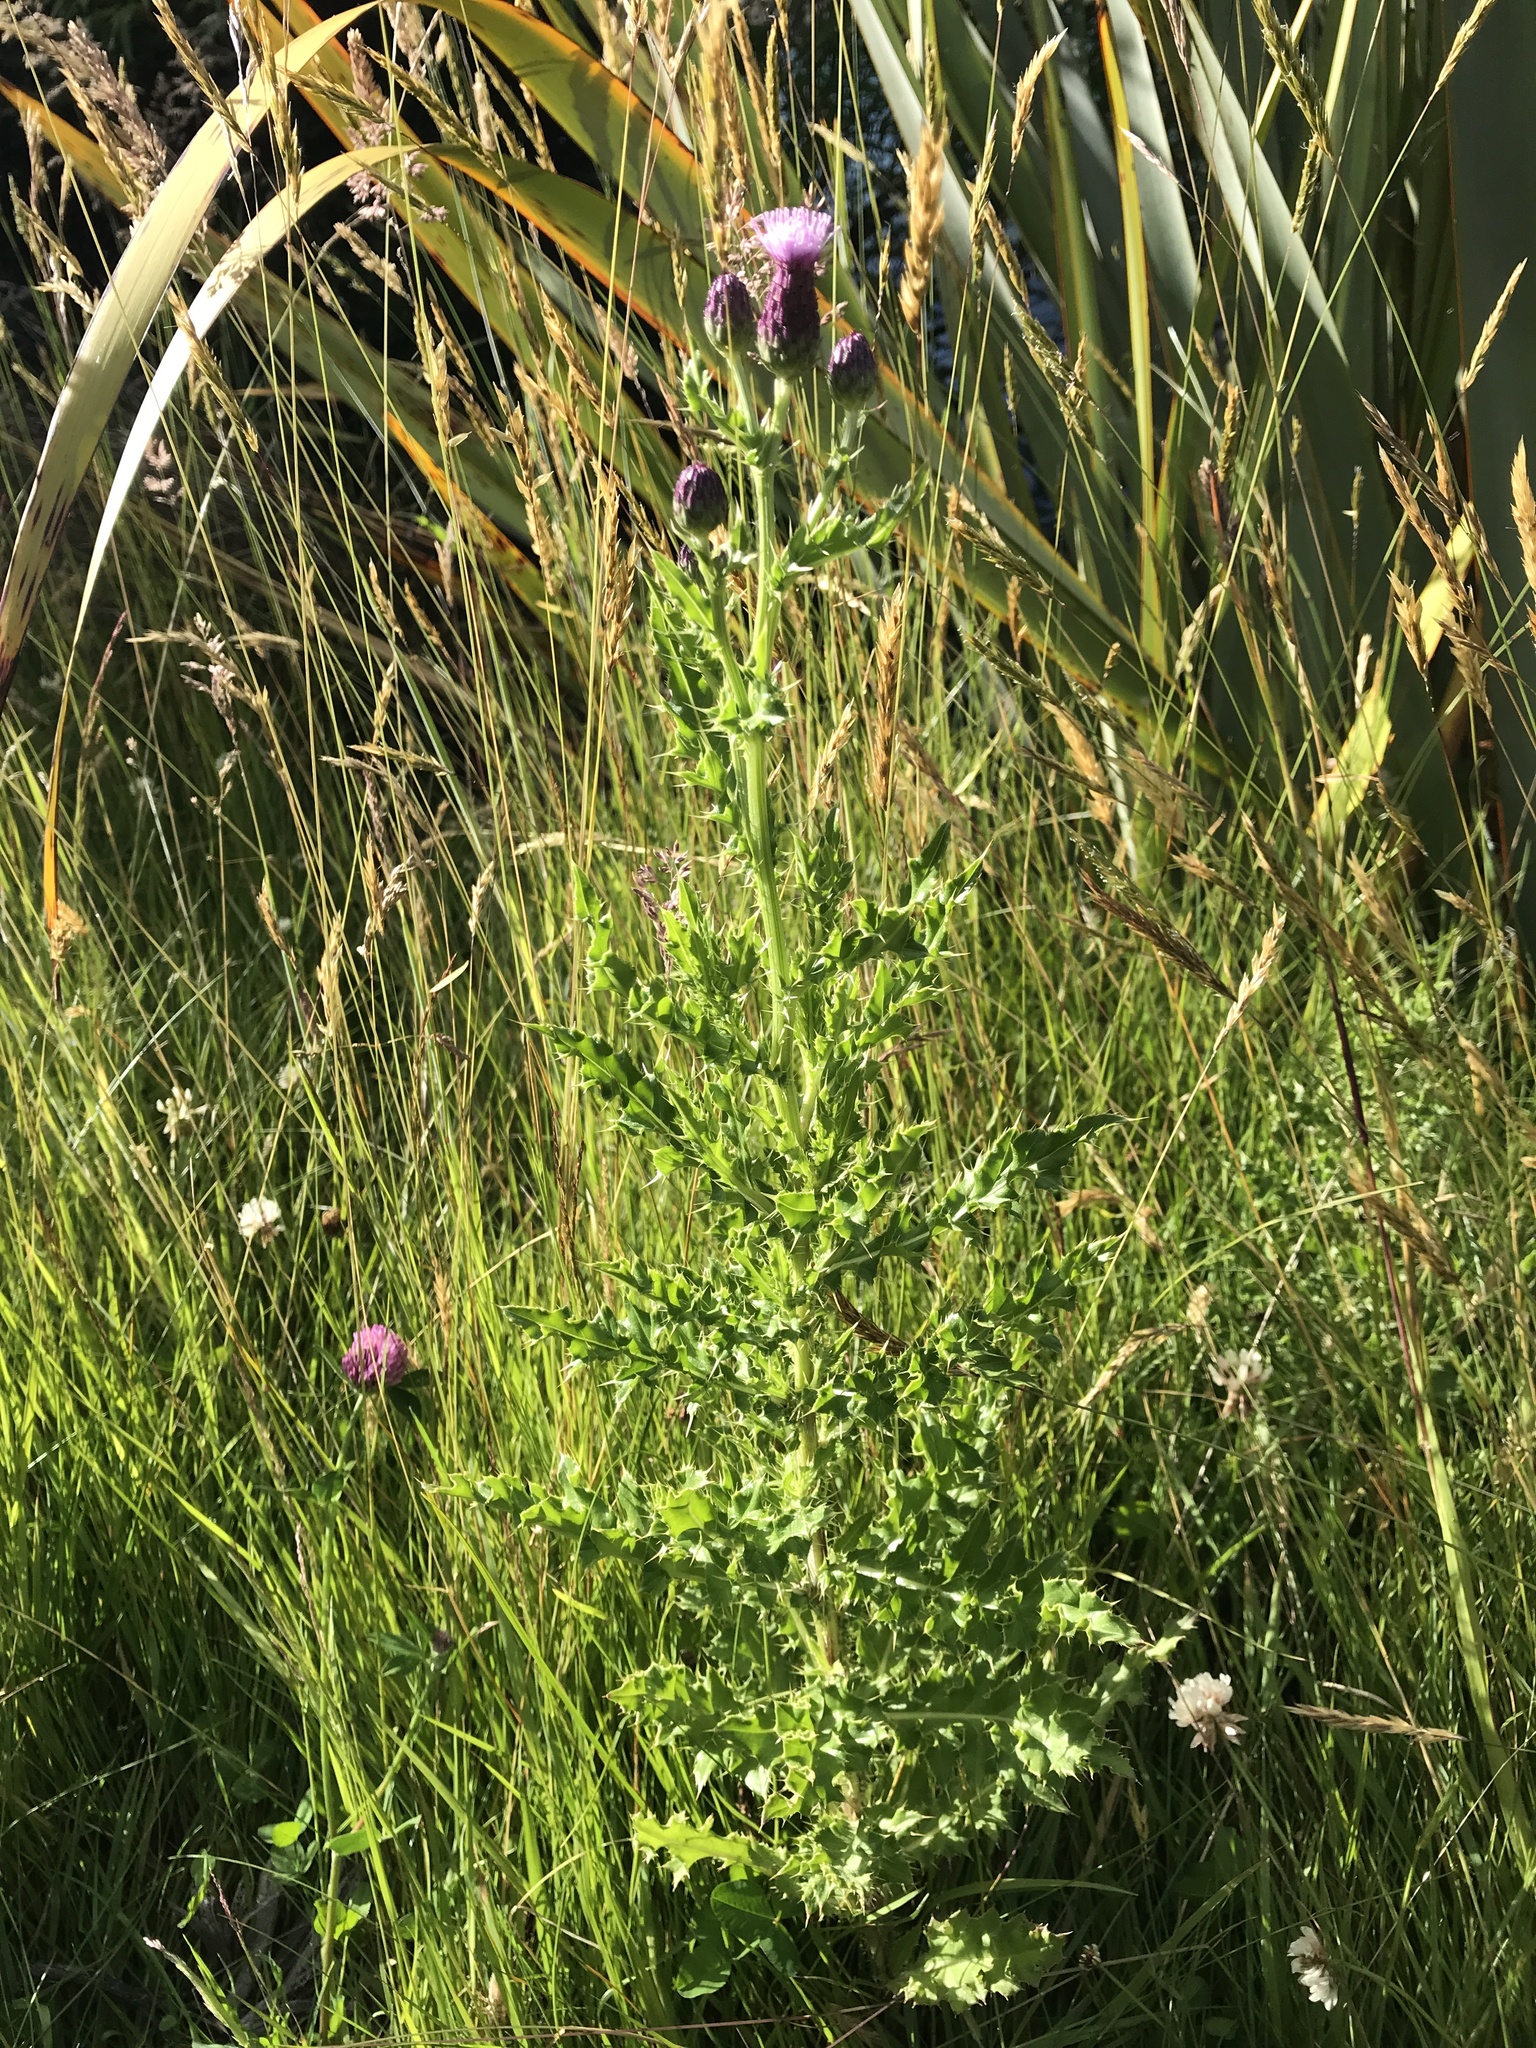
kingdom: Plantae
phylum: Tracheophyta
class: Magnoliopsida
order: Asterales
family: Asteraceae
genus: Cirsium
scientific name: Cirsium arvense
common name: Creeping thistle
